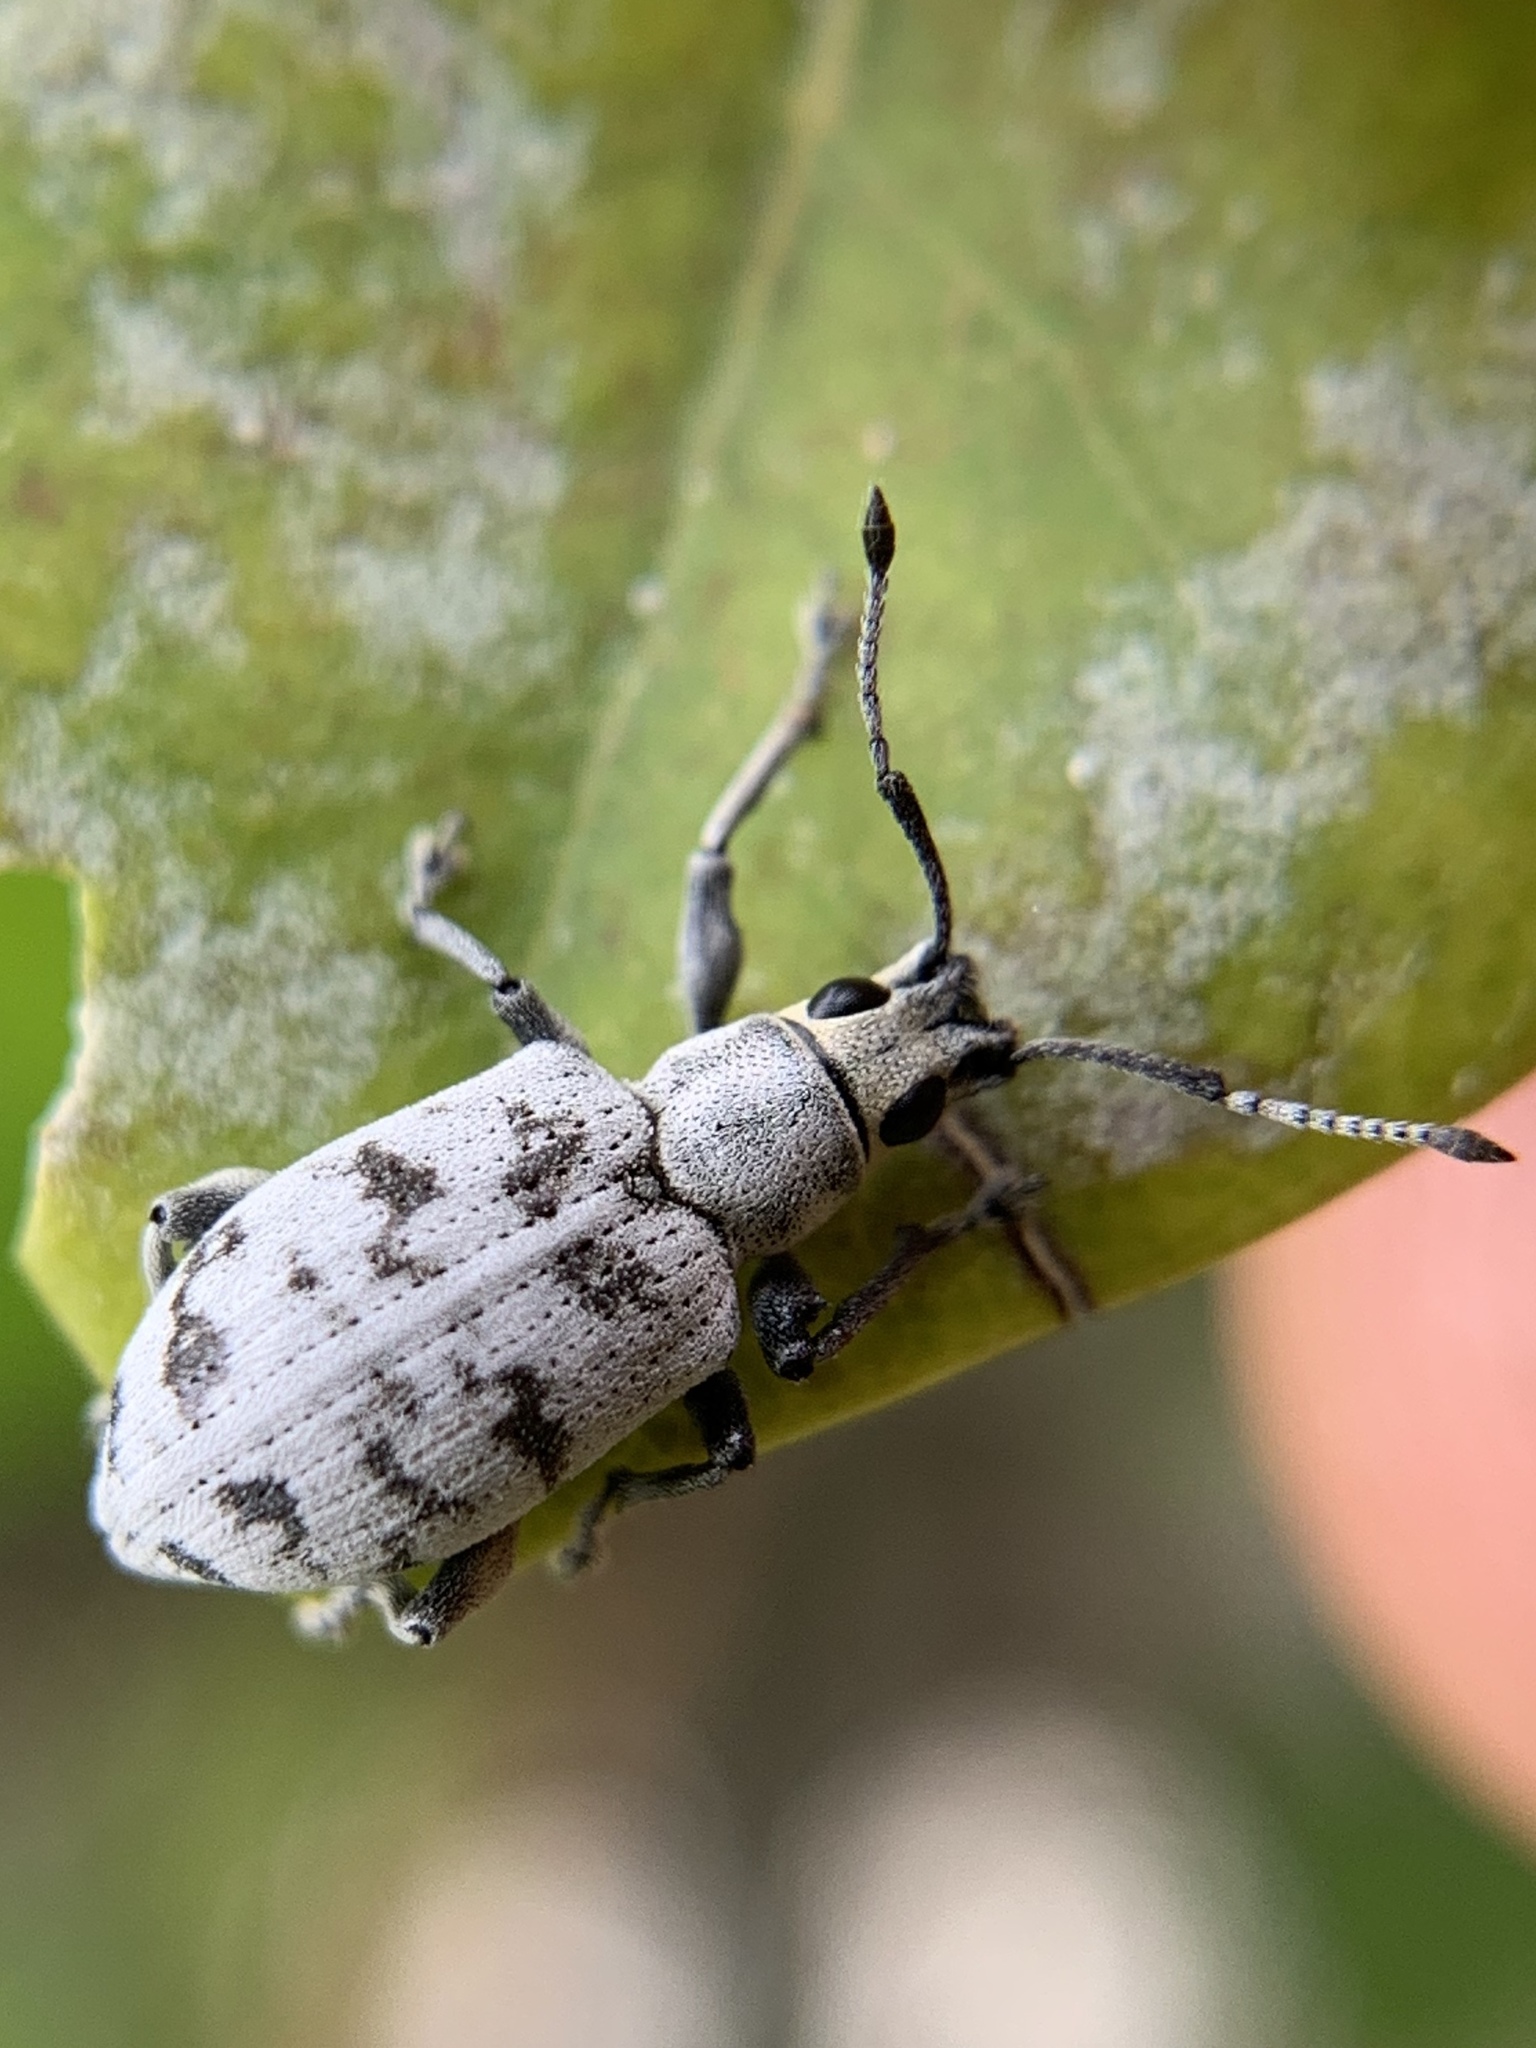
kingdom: Animalia
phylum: Arthropoda
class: Insecta
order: Coleoptera
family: Curculionidae
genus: Myllocerus
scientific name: Myllocerus undecimpustulatus
